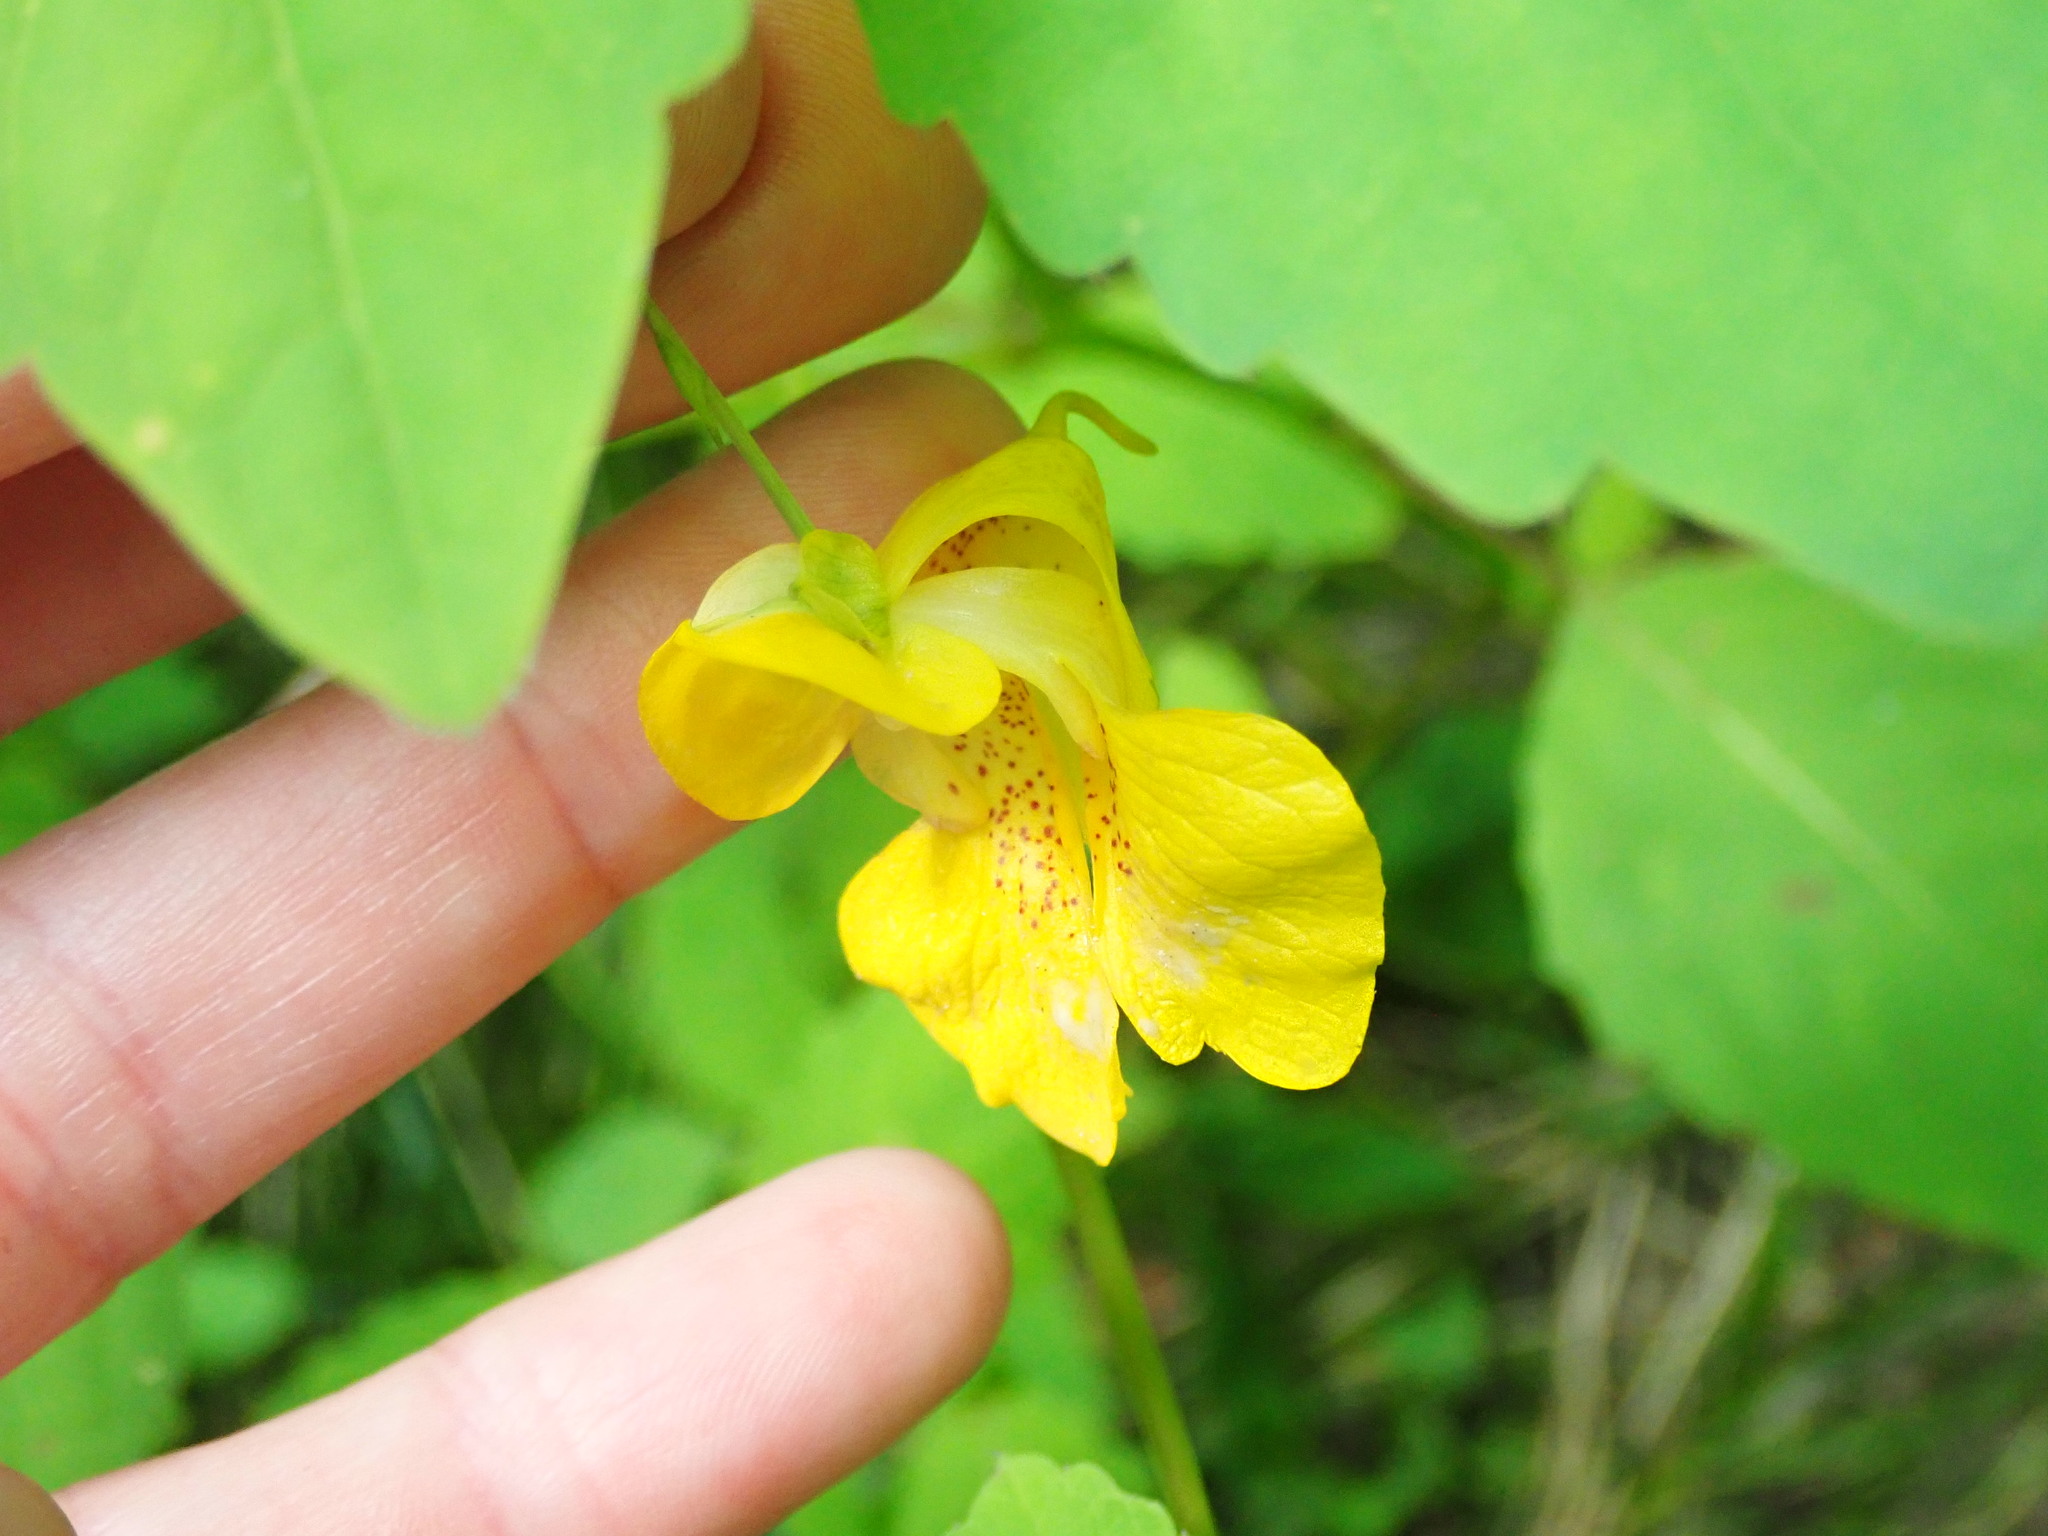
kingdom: Plantae
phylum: Tracheophyta
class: Magnoliopsida
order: Ericales
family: Balsaminaceae
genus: Impatiens
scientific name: Impatiens pallida
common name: Pale snapweed
